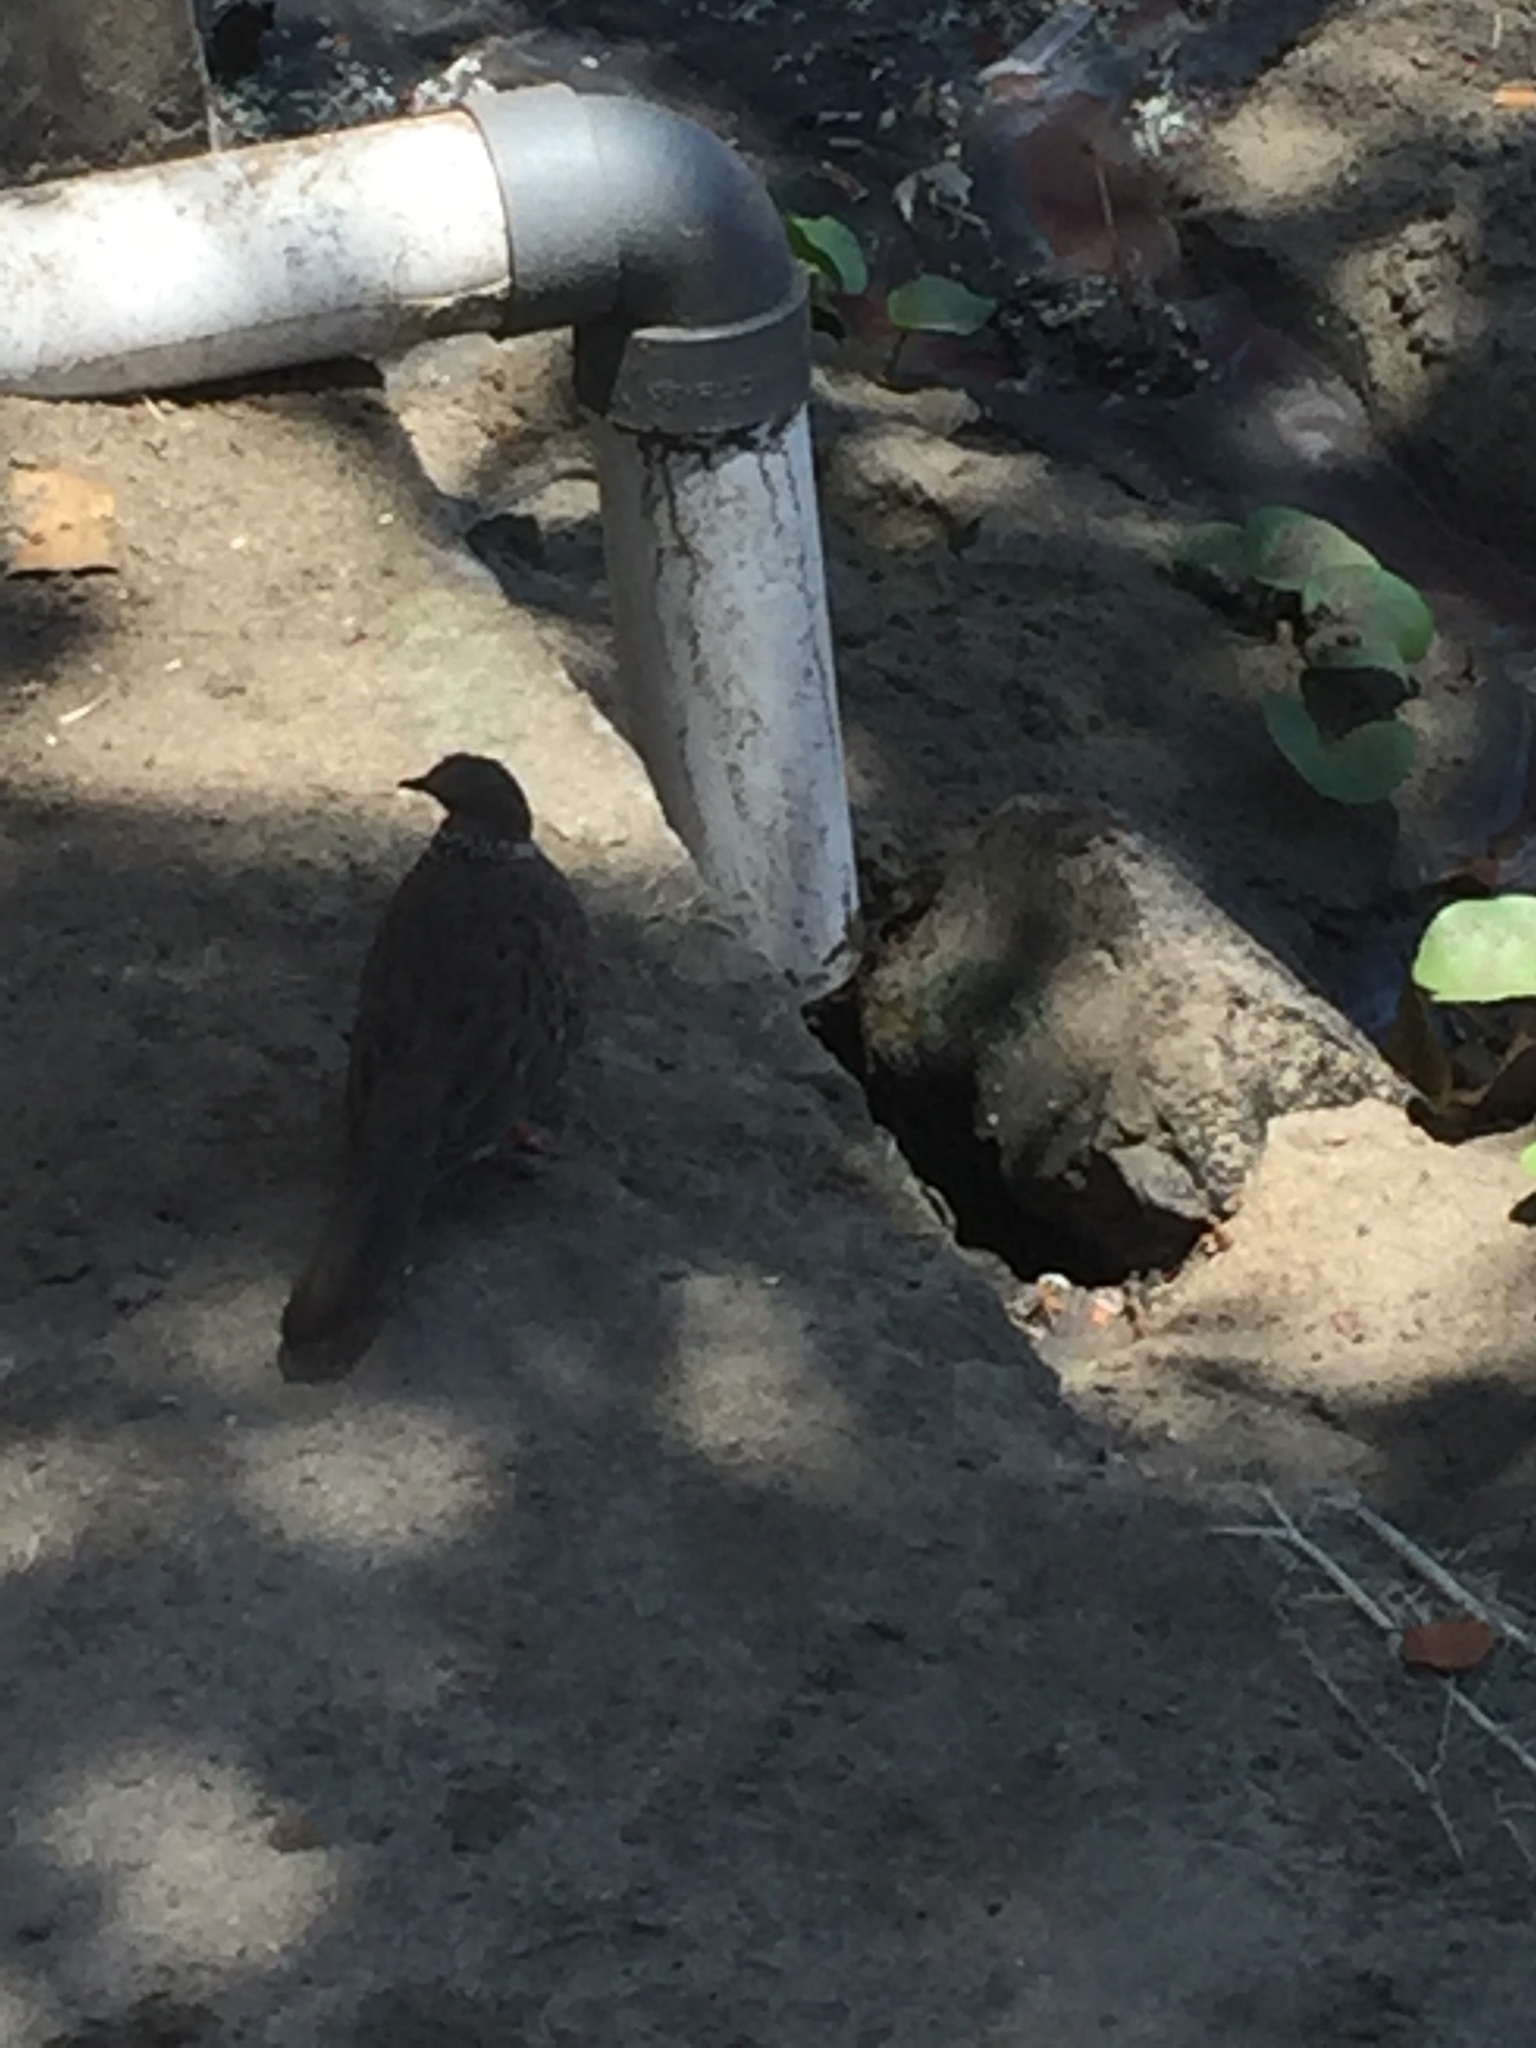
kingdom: Animalia
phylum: Chordata
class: Aves
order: Columbiformes
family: Columbidae
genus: Spilopelia
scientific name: Spilopelia chinensis
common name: Spotted dove
